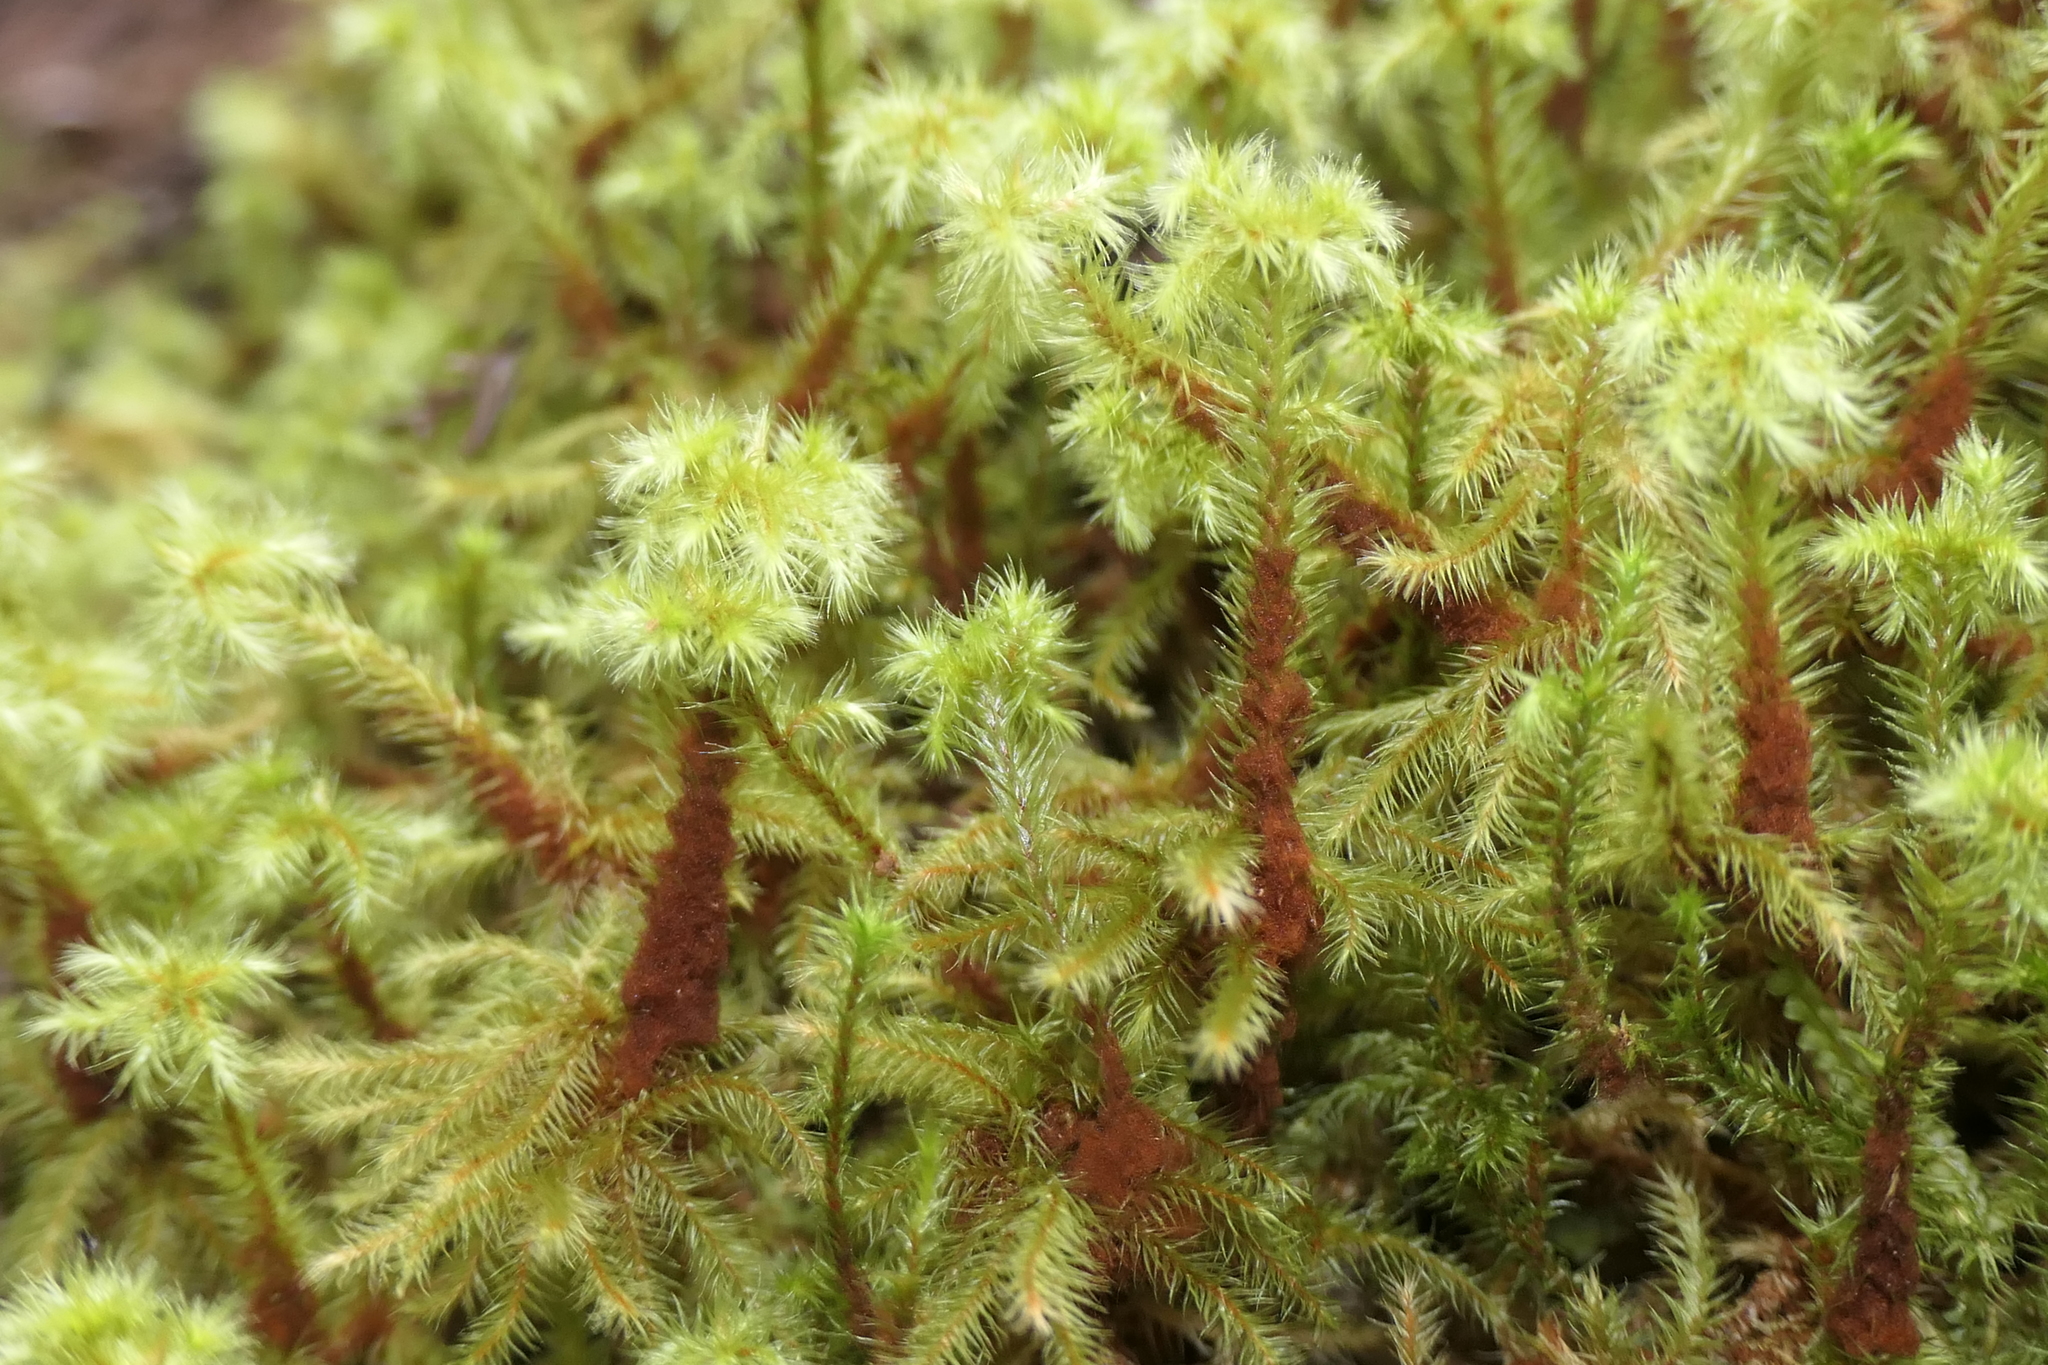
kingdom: Plantae
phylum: Bryophyta
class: Bryopsida
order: Bartramiales
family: Bartramiaceae
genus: Breutelia
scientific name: Breutelia azorica
